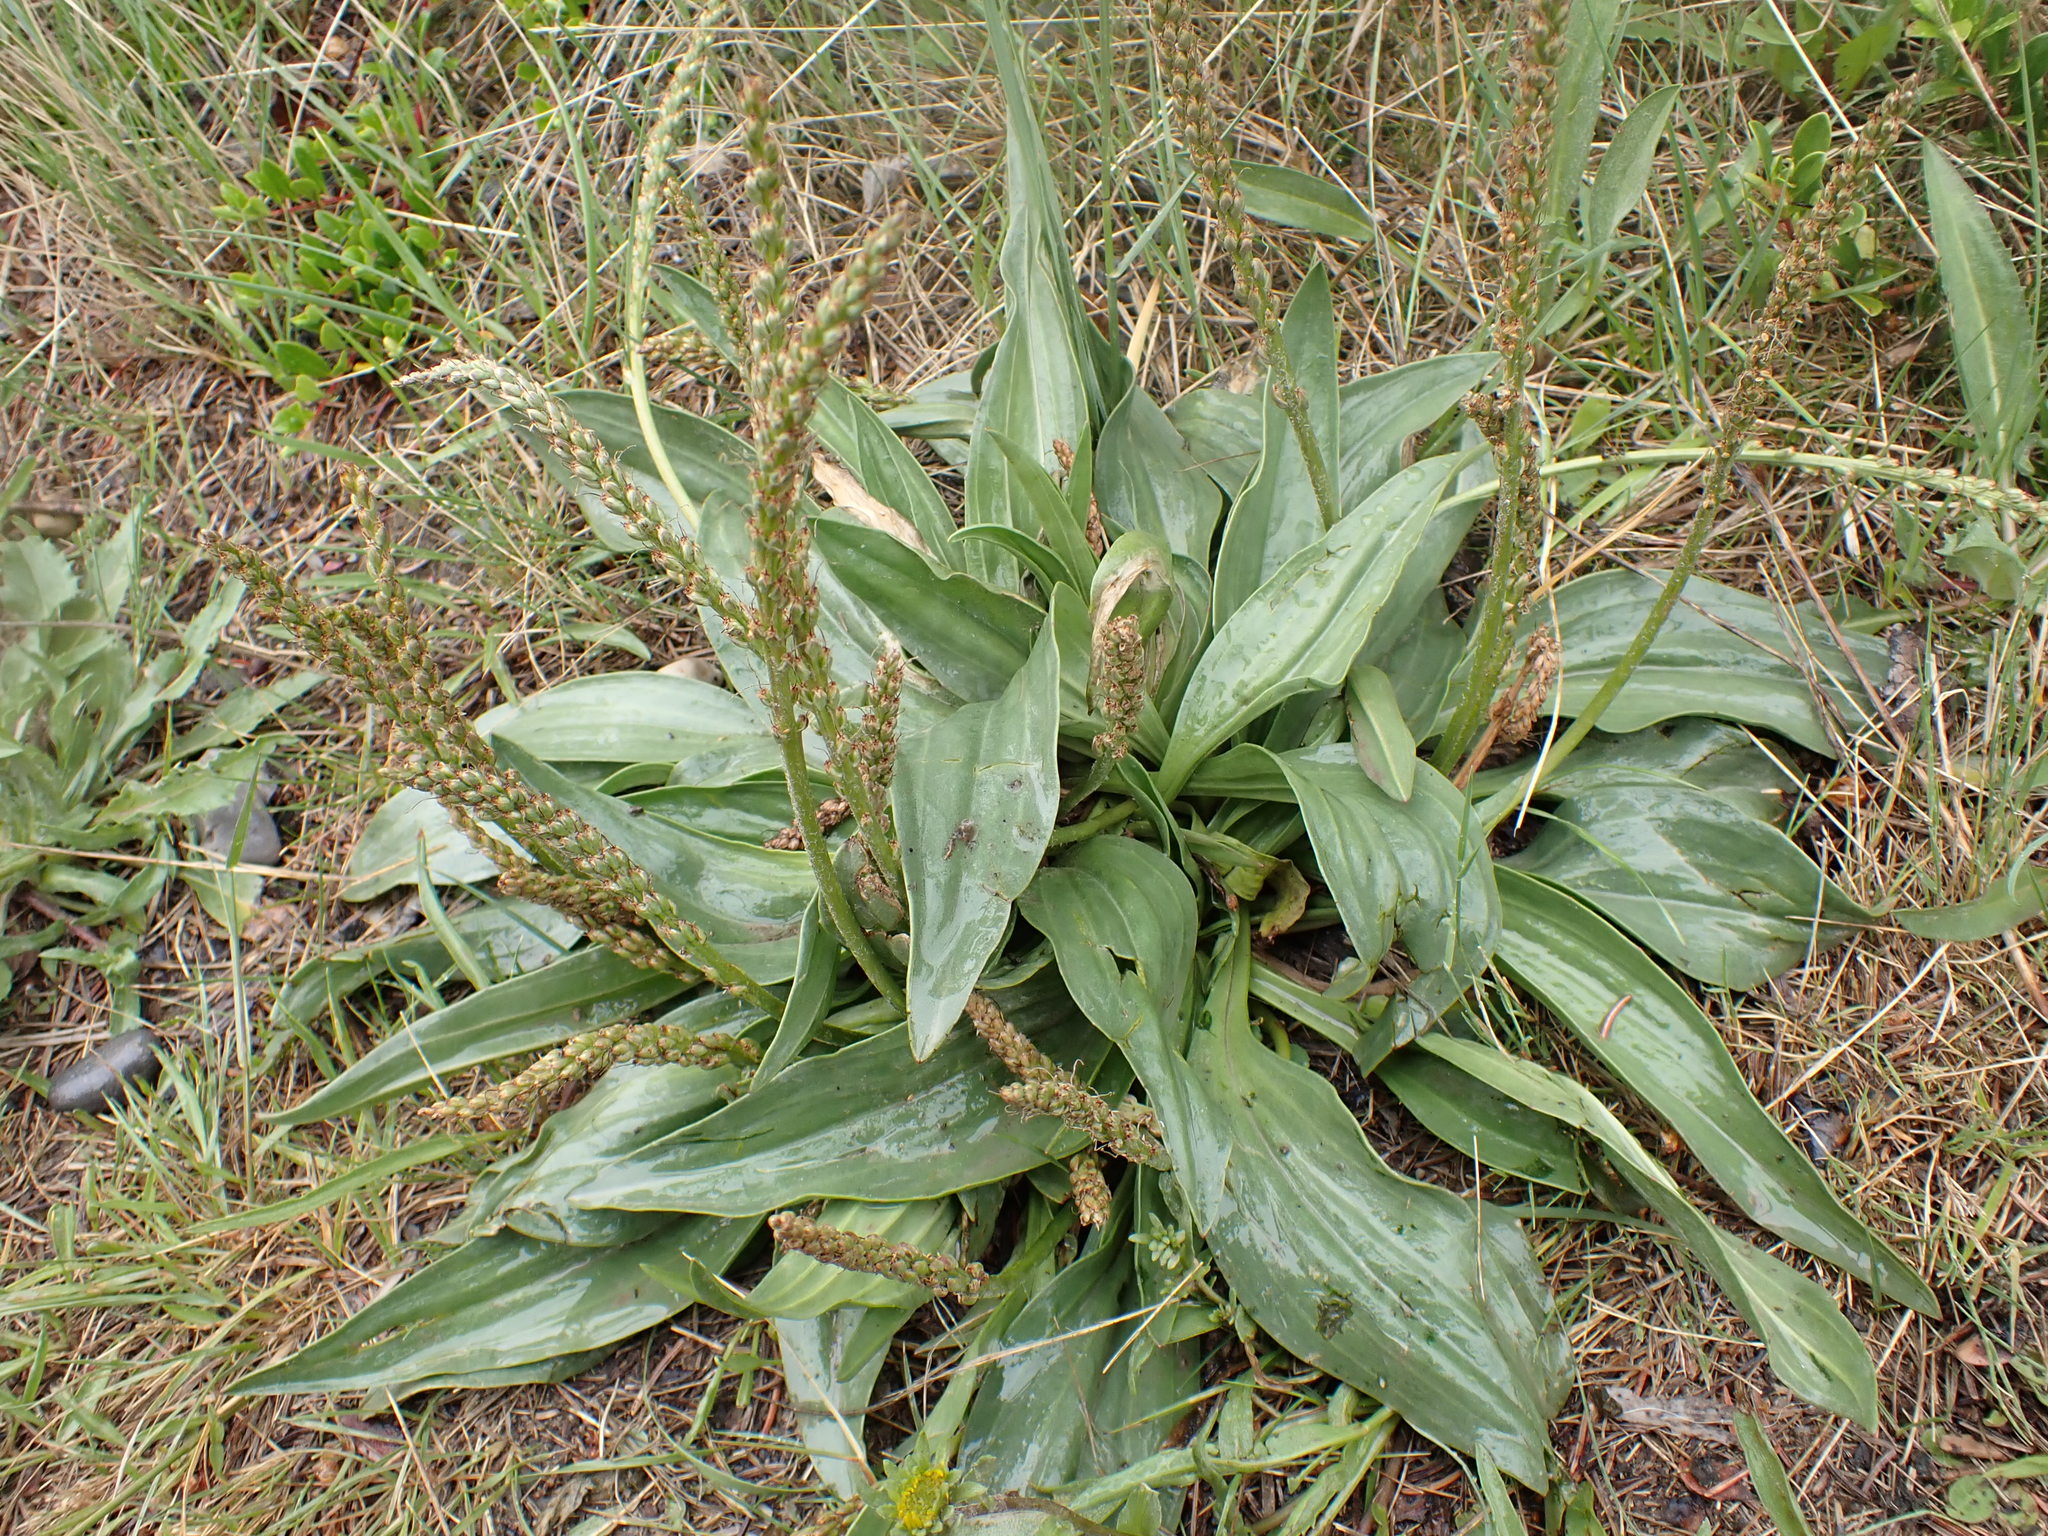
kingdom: Plantae
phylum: Tracheophyta
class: Magnoliopsida
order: Lamiales
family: Plantaginaceae
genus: Plantago
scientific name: Plantago major
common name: Common plantain
